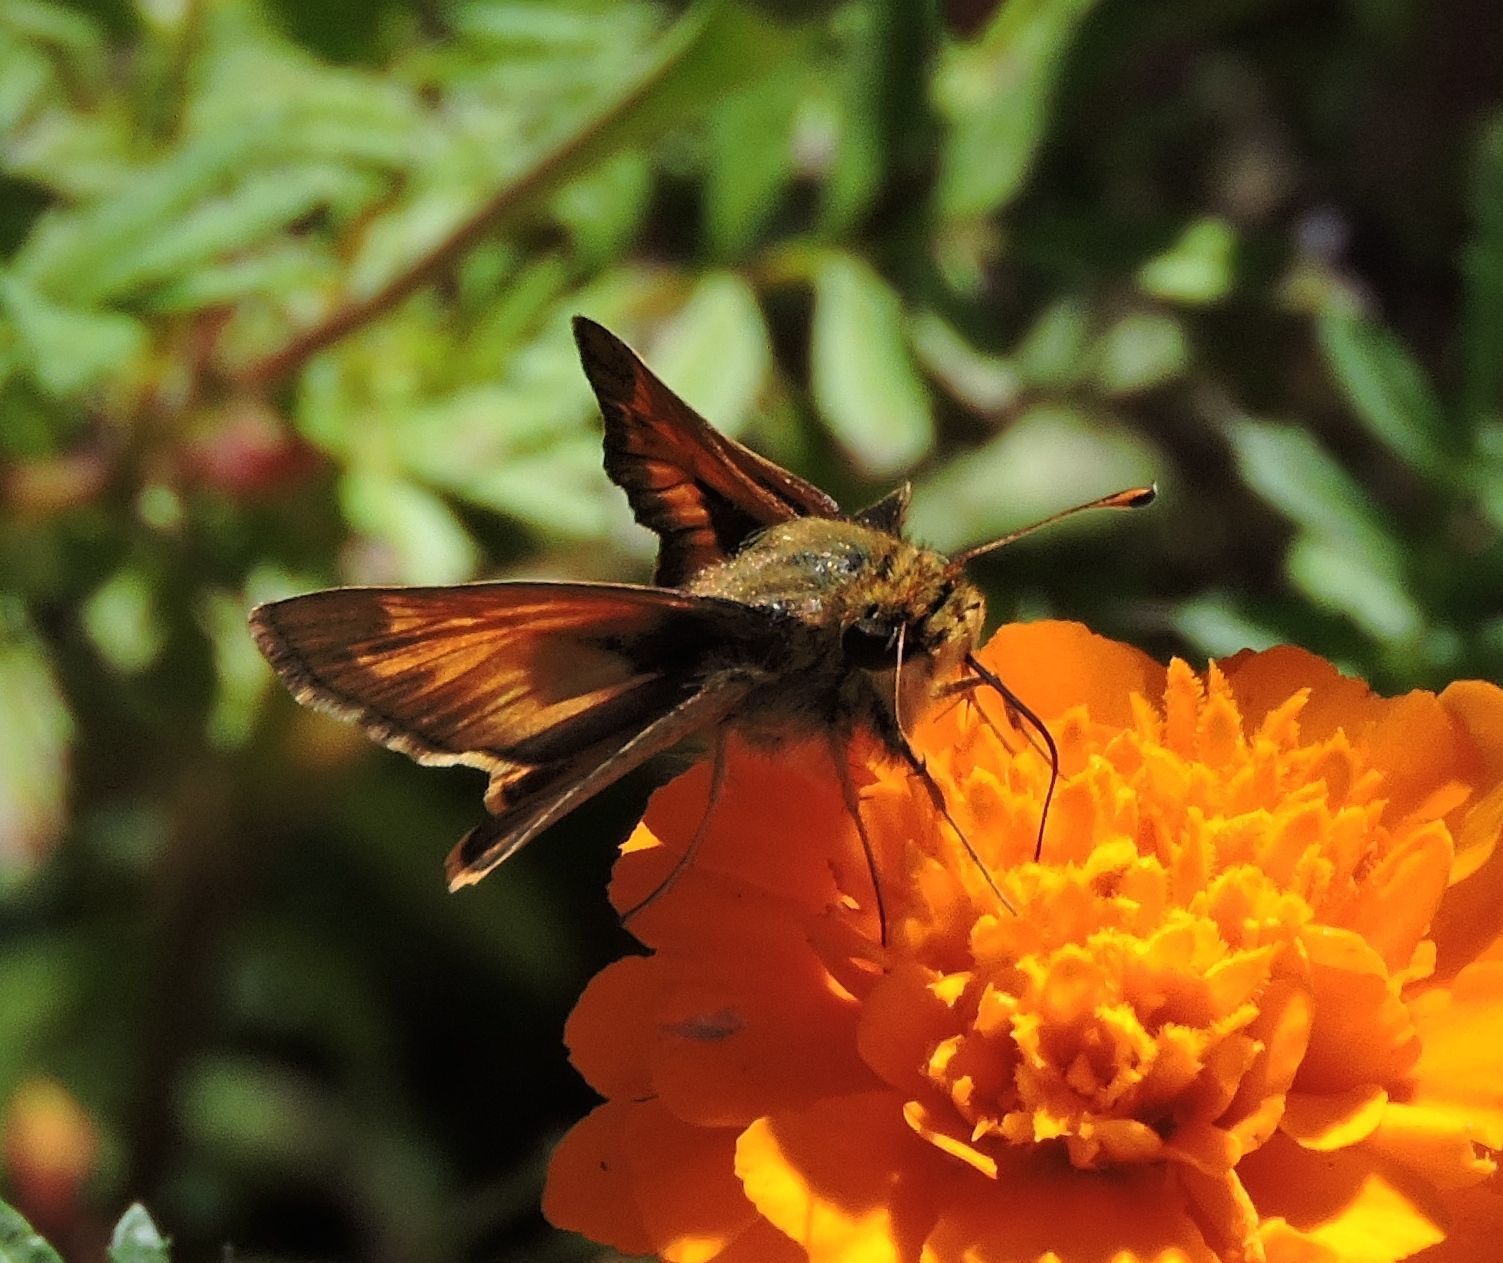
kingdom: Animalia
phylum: Arthropoda
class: Insecta
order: Lepidoptera
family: Hesperiidae
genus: Atalopedes
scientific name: Atalopedes
